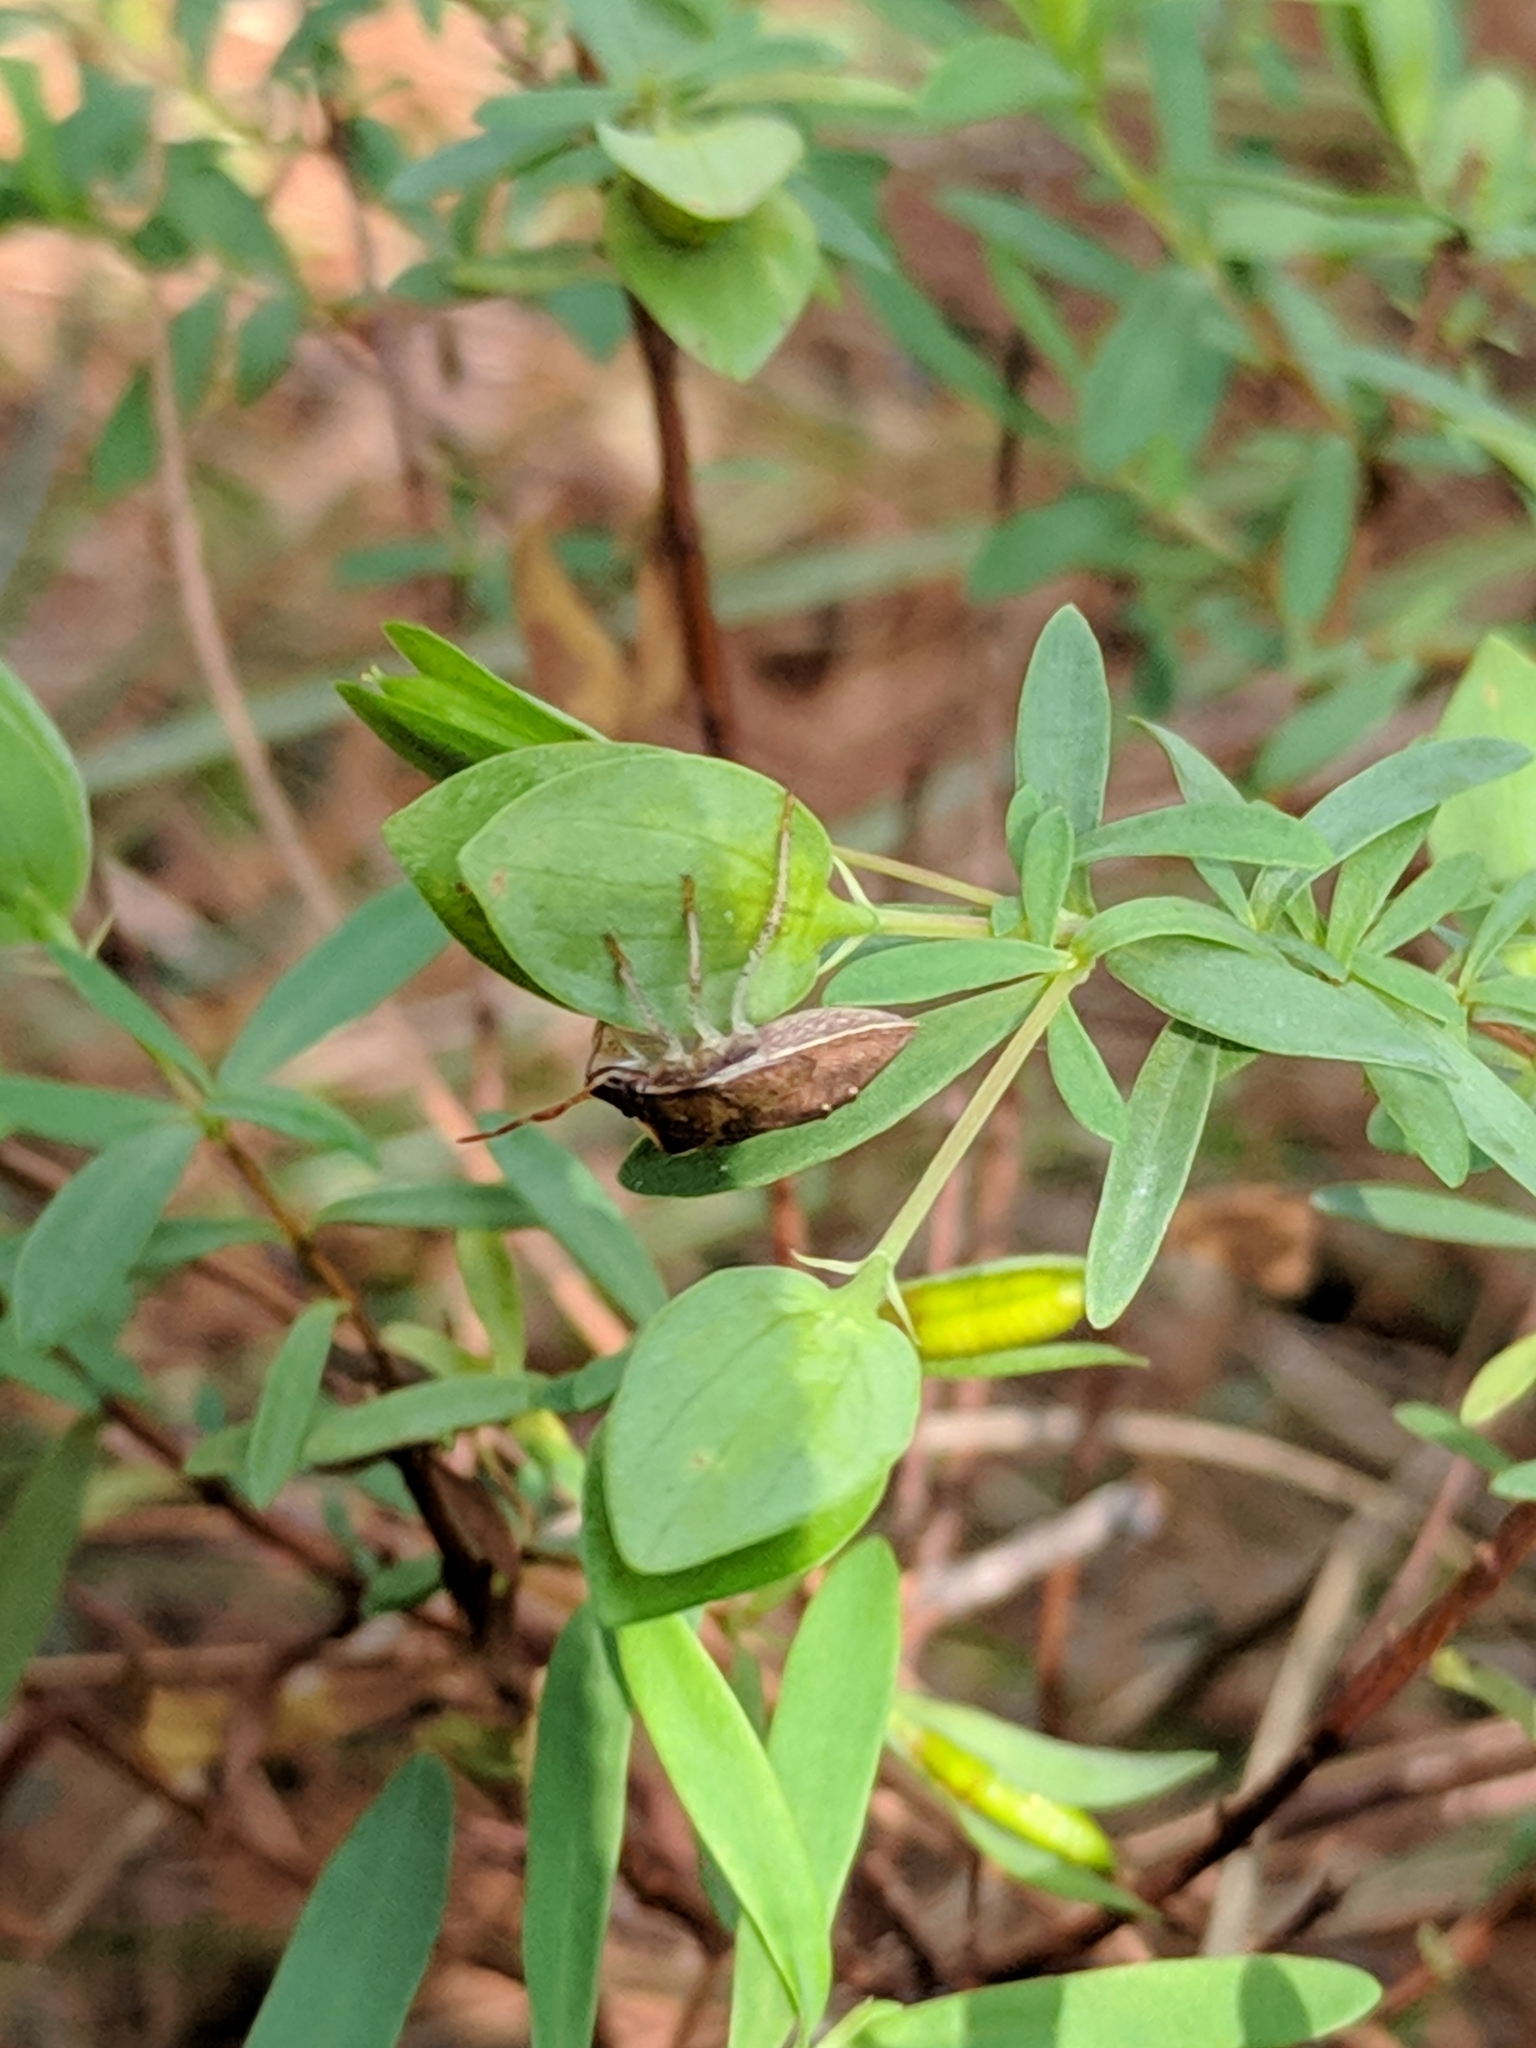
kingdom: Plantae
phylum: Tracheophyta
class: Magnoliopsida
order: Malpighiales
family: Hypericaceae
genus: Hypericum
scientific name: Hypericum hypericoides
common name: St. andrew's cross
